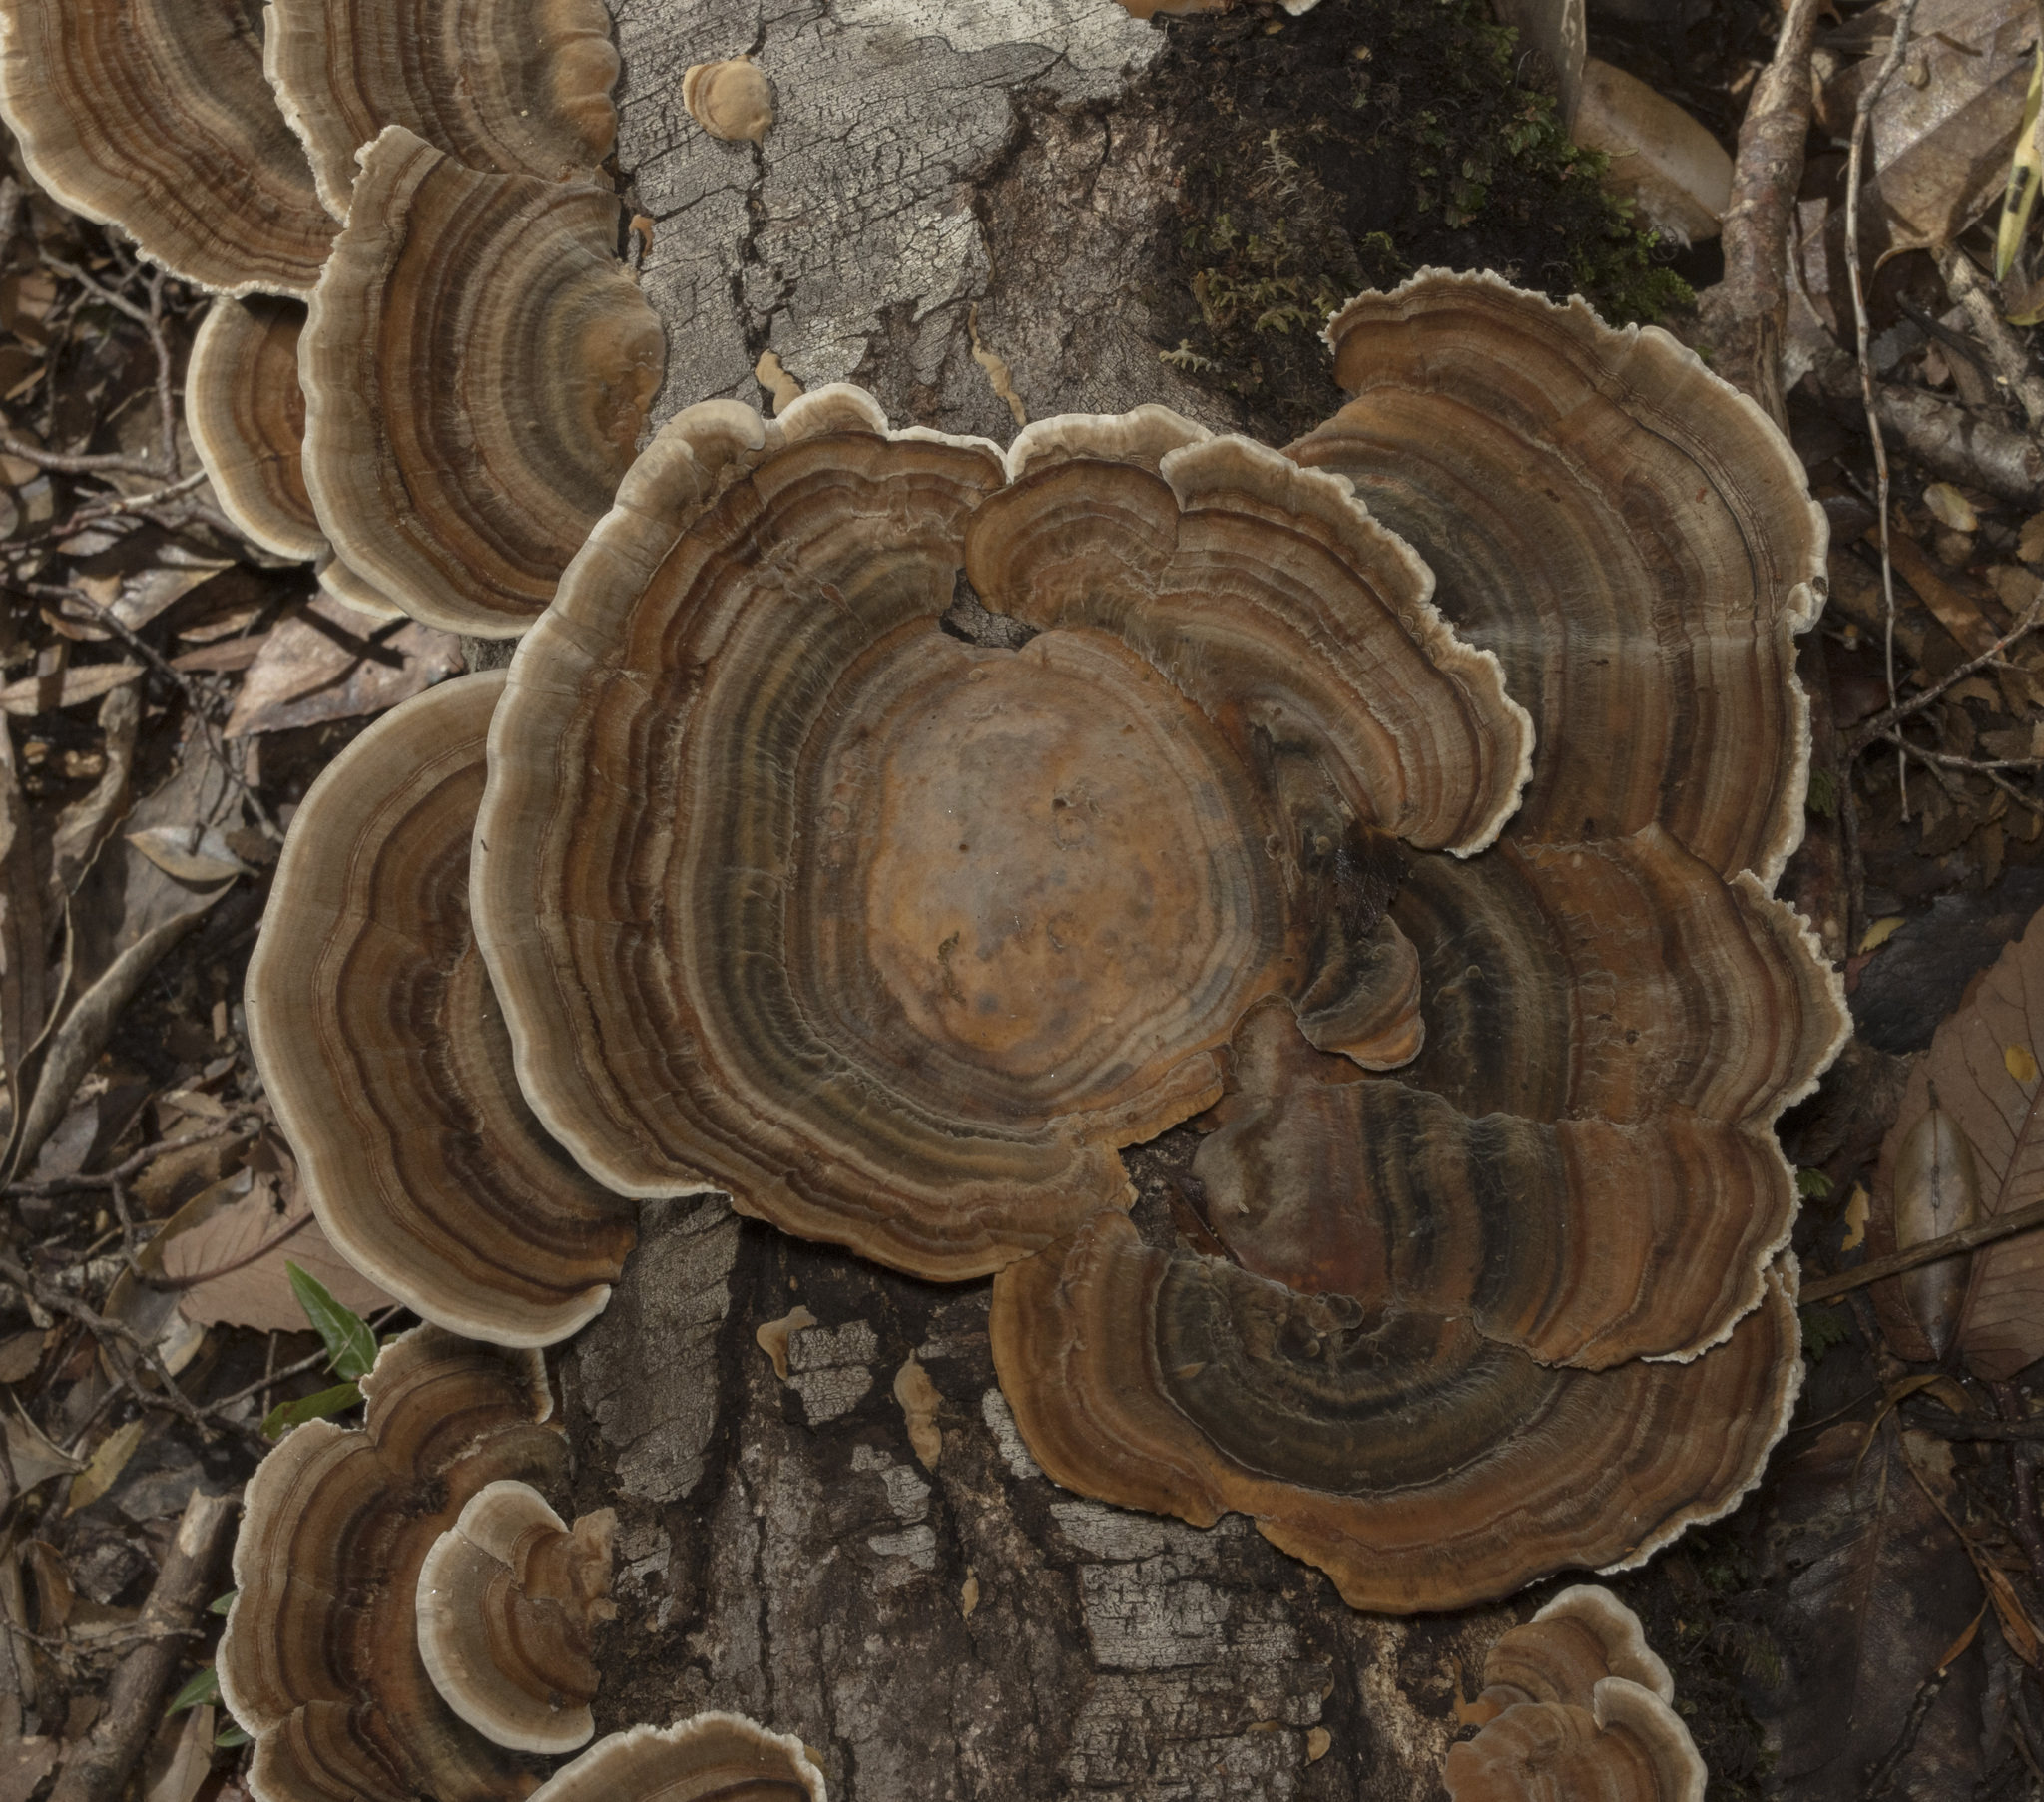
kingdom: Fungi
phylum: Basidiomycota
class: Agaricomycetes
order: Polyporales
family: Polyporaceae
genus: Trametes
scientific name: Trametes versicolor
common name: Turkeytail
